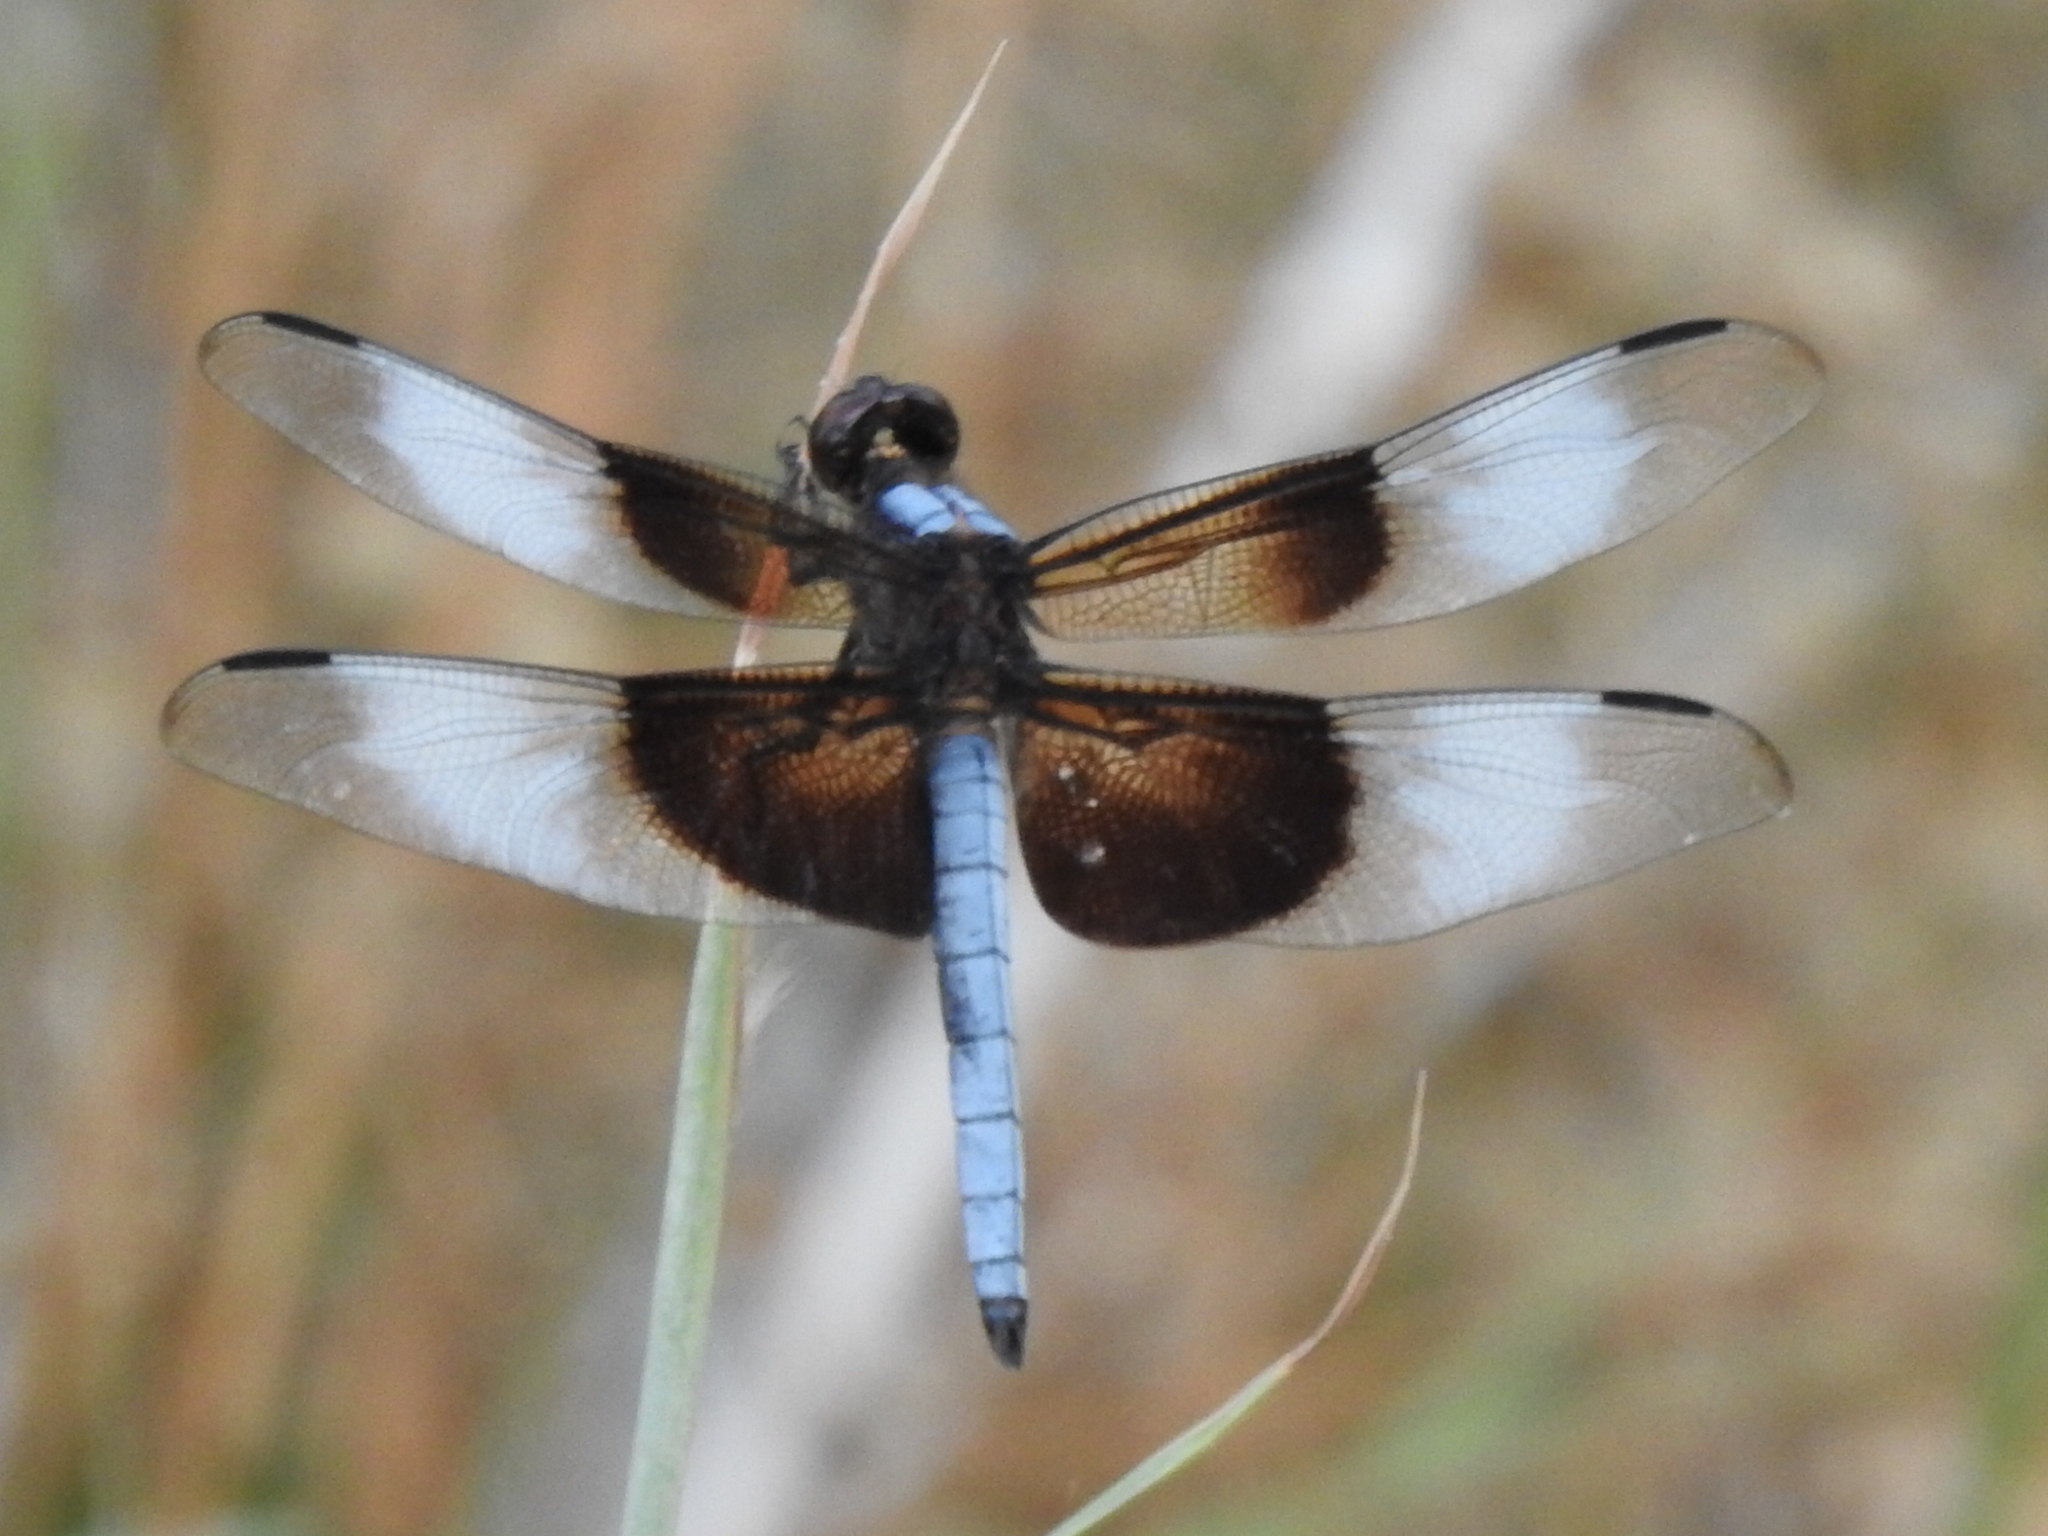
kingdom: Animalia
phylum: Arthropoda
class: Insecta
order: Odonata
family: Libellulidae
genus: Libellula
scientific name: Libellula luctuosa
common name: Widow skimmer
